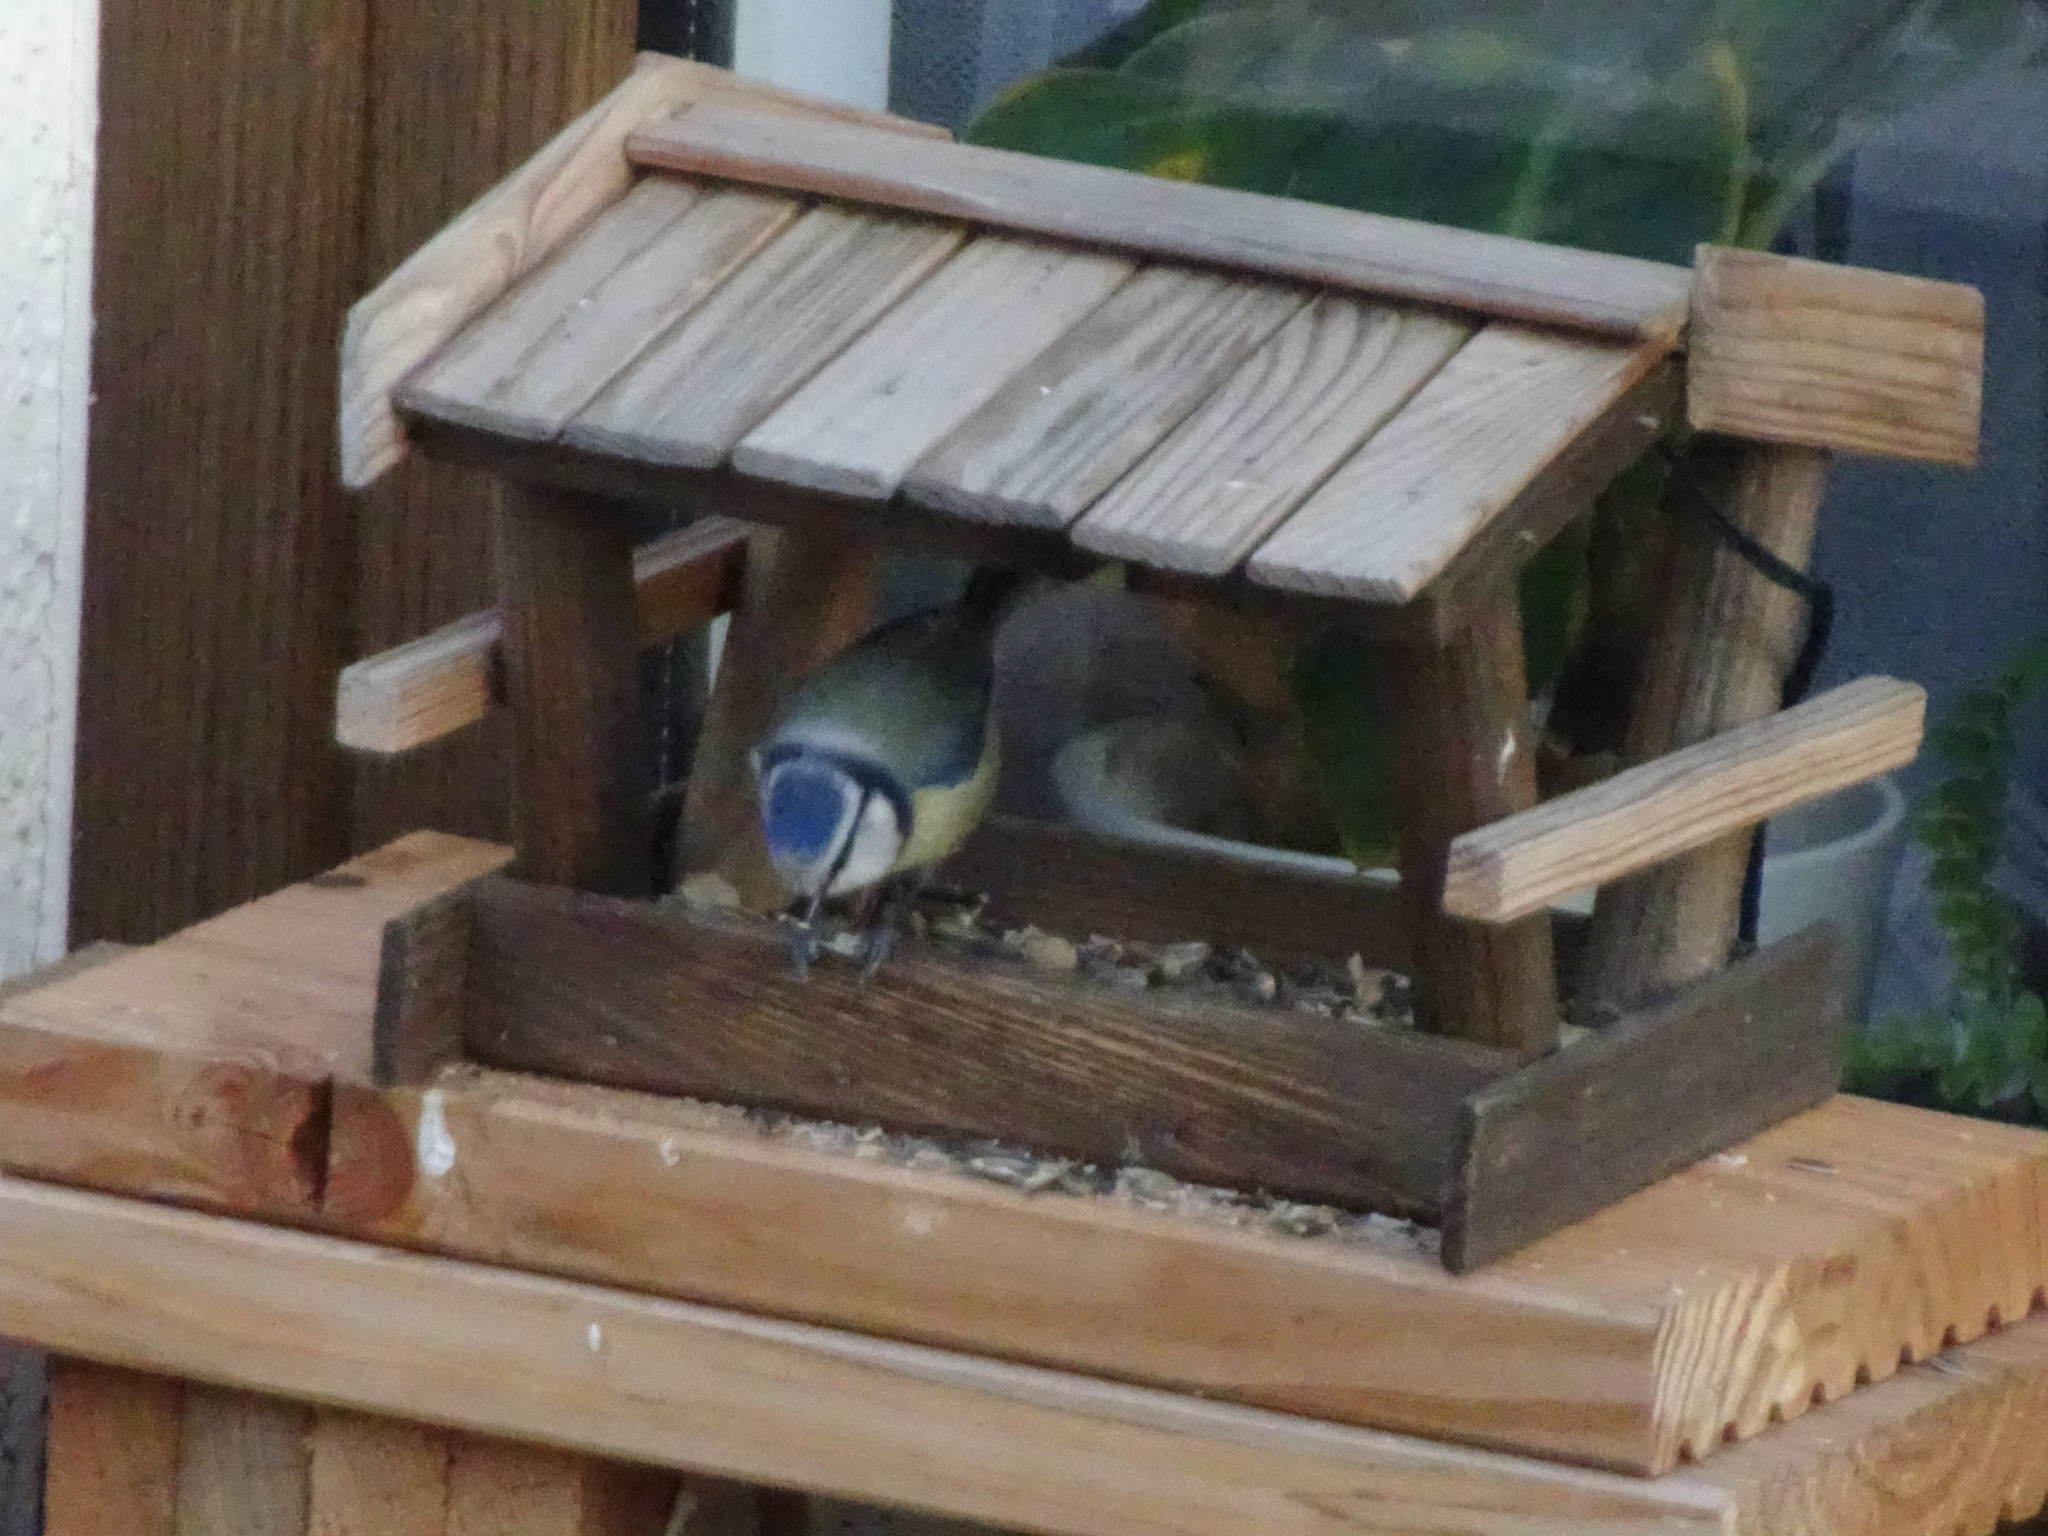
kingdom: Animalia
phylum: Chordata
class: Aves
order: Passeriformes
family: Paridae
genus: Cyanistes
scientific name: Cyanistes caeruleus
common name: Eurasian blue tit
